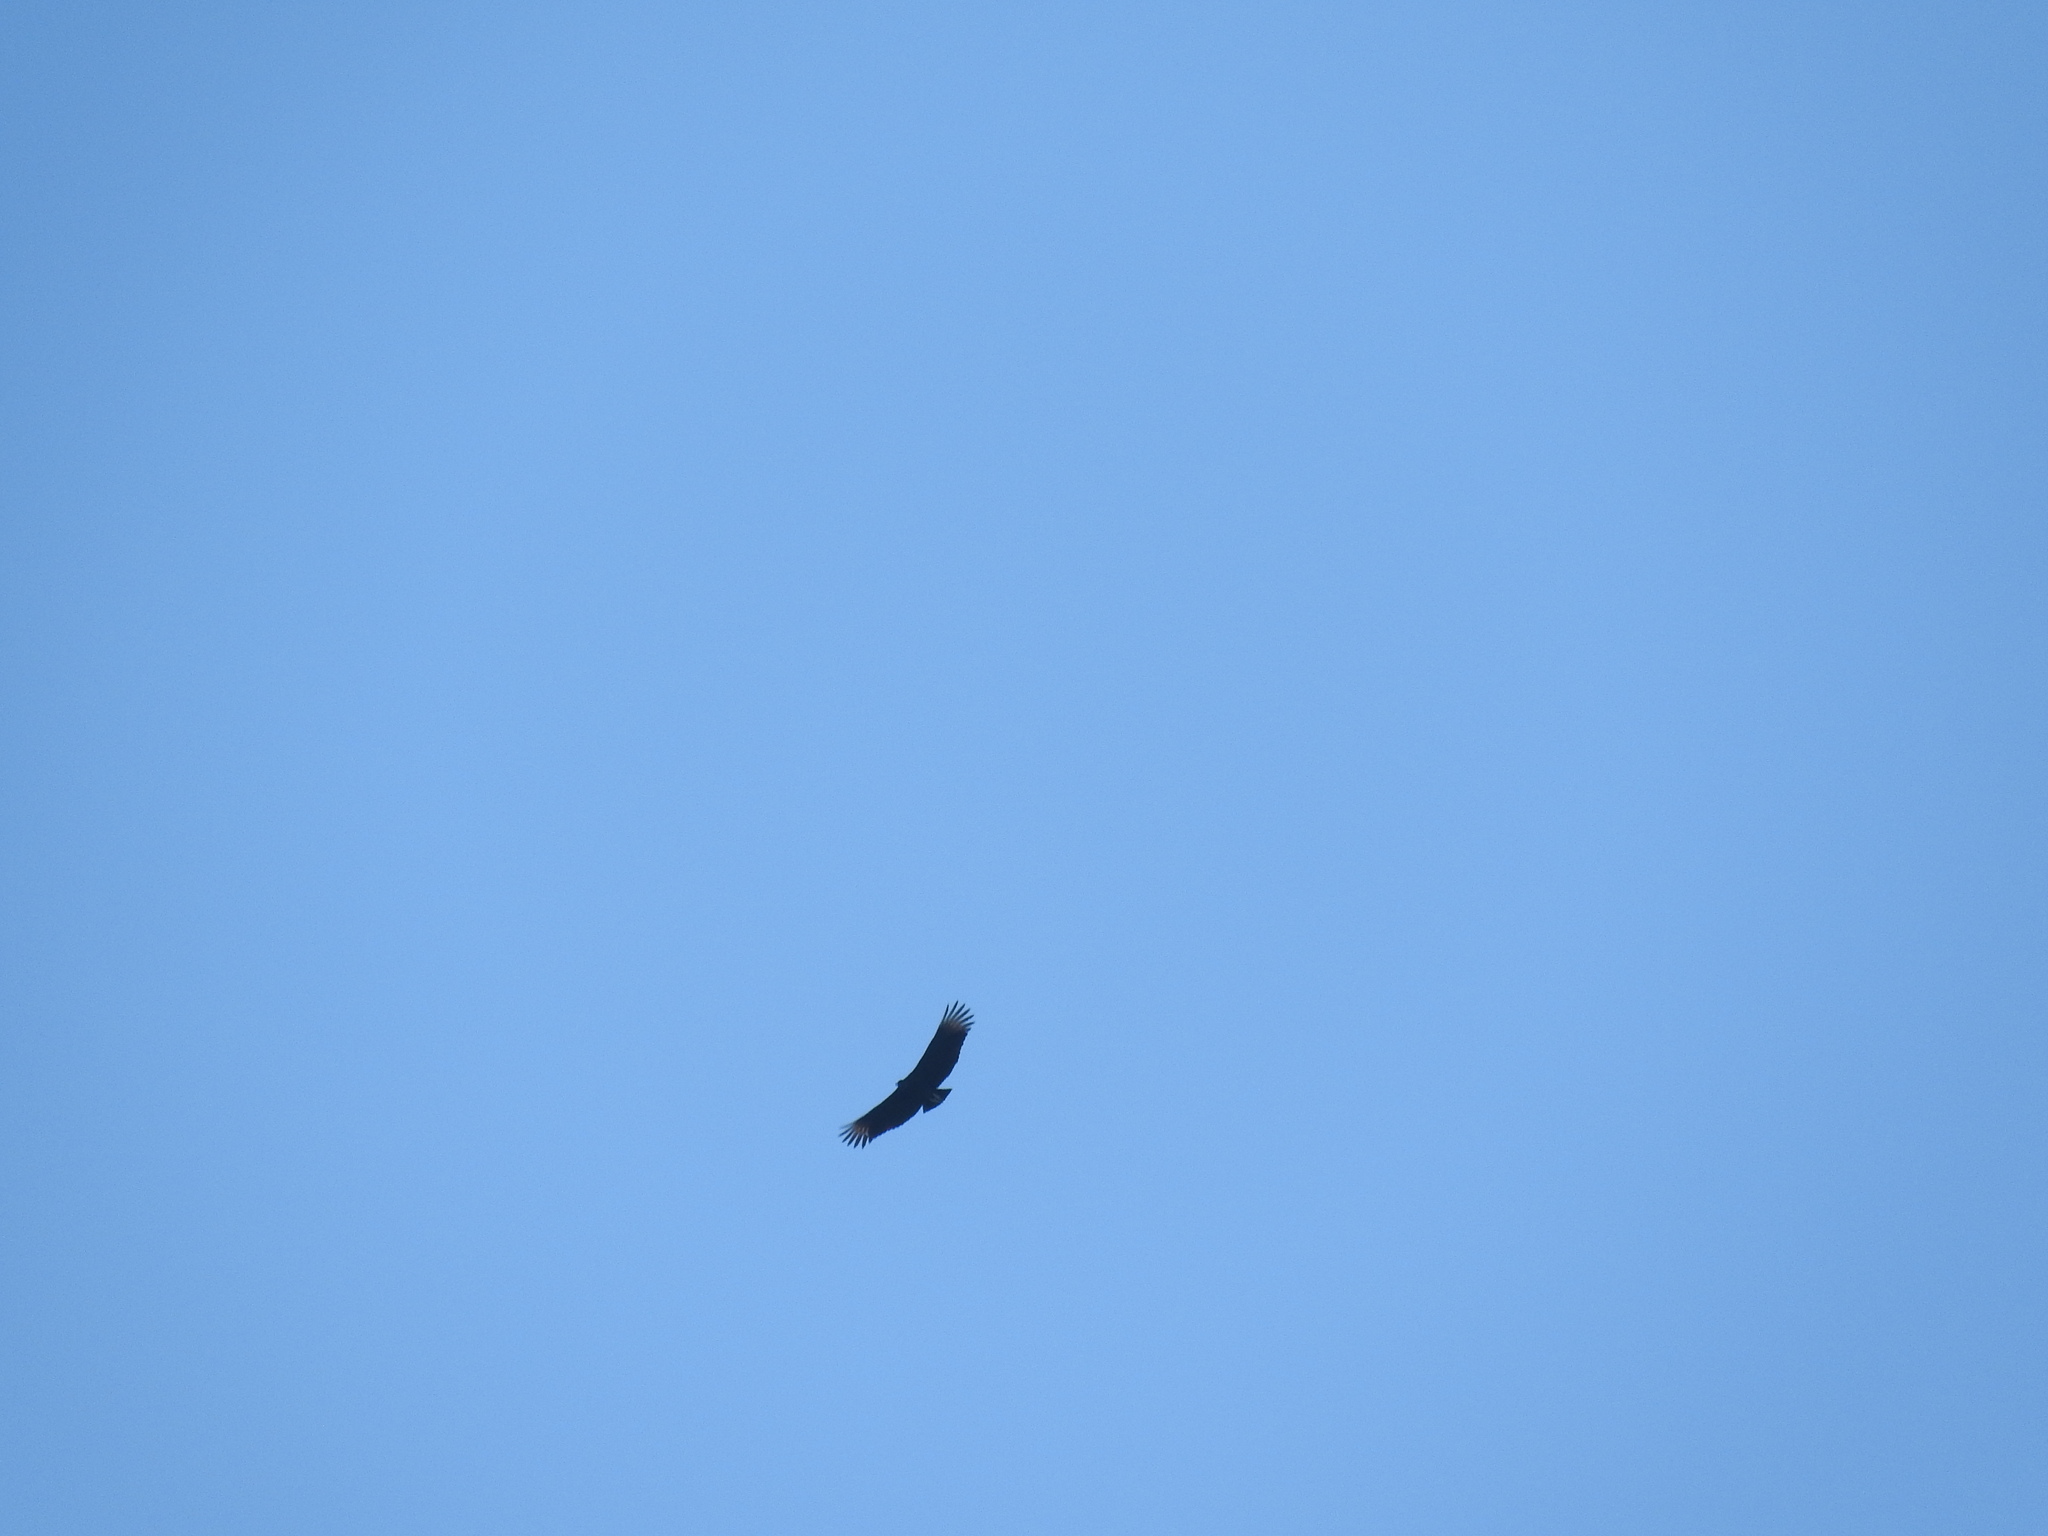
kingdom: Animalia
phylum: Chordata
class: Aves
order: Accipitriformes
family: Cathartidae
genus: Coragyps
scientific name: Coragyps atratus
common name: Black vulture
